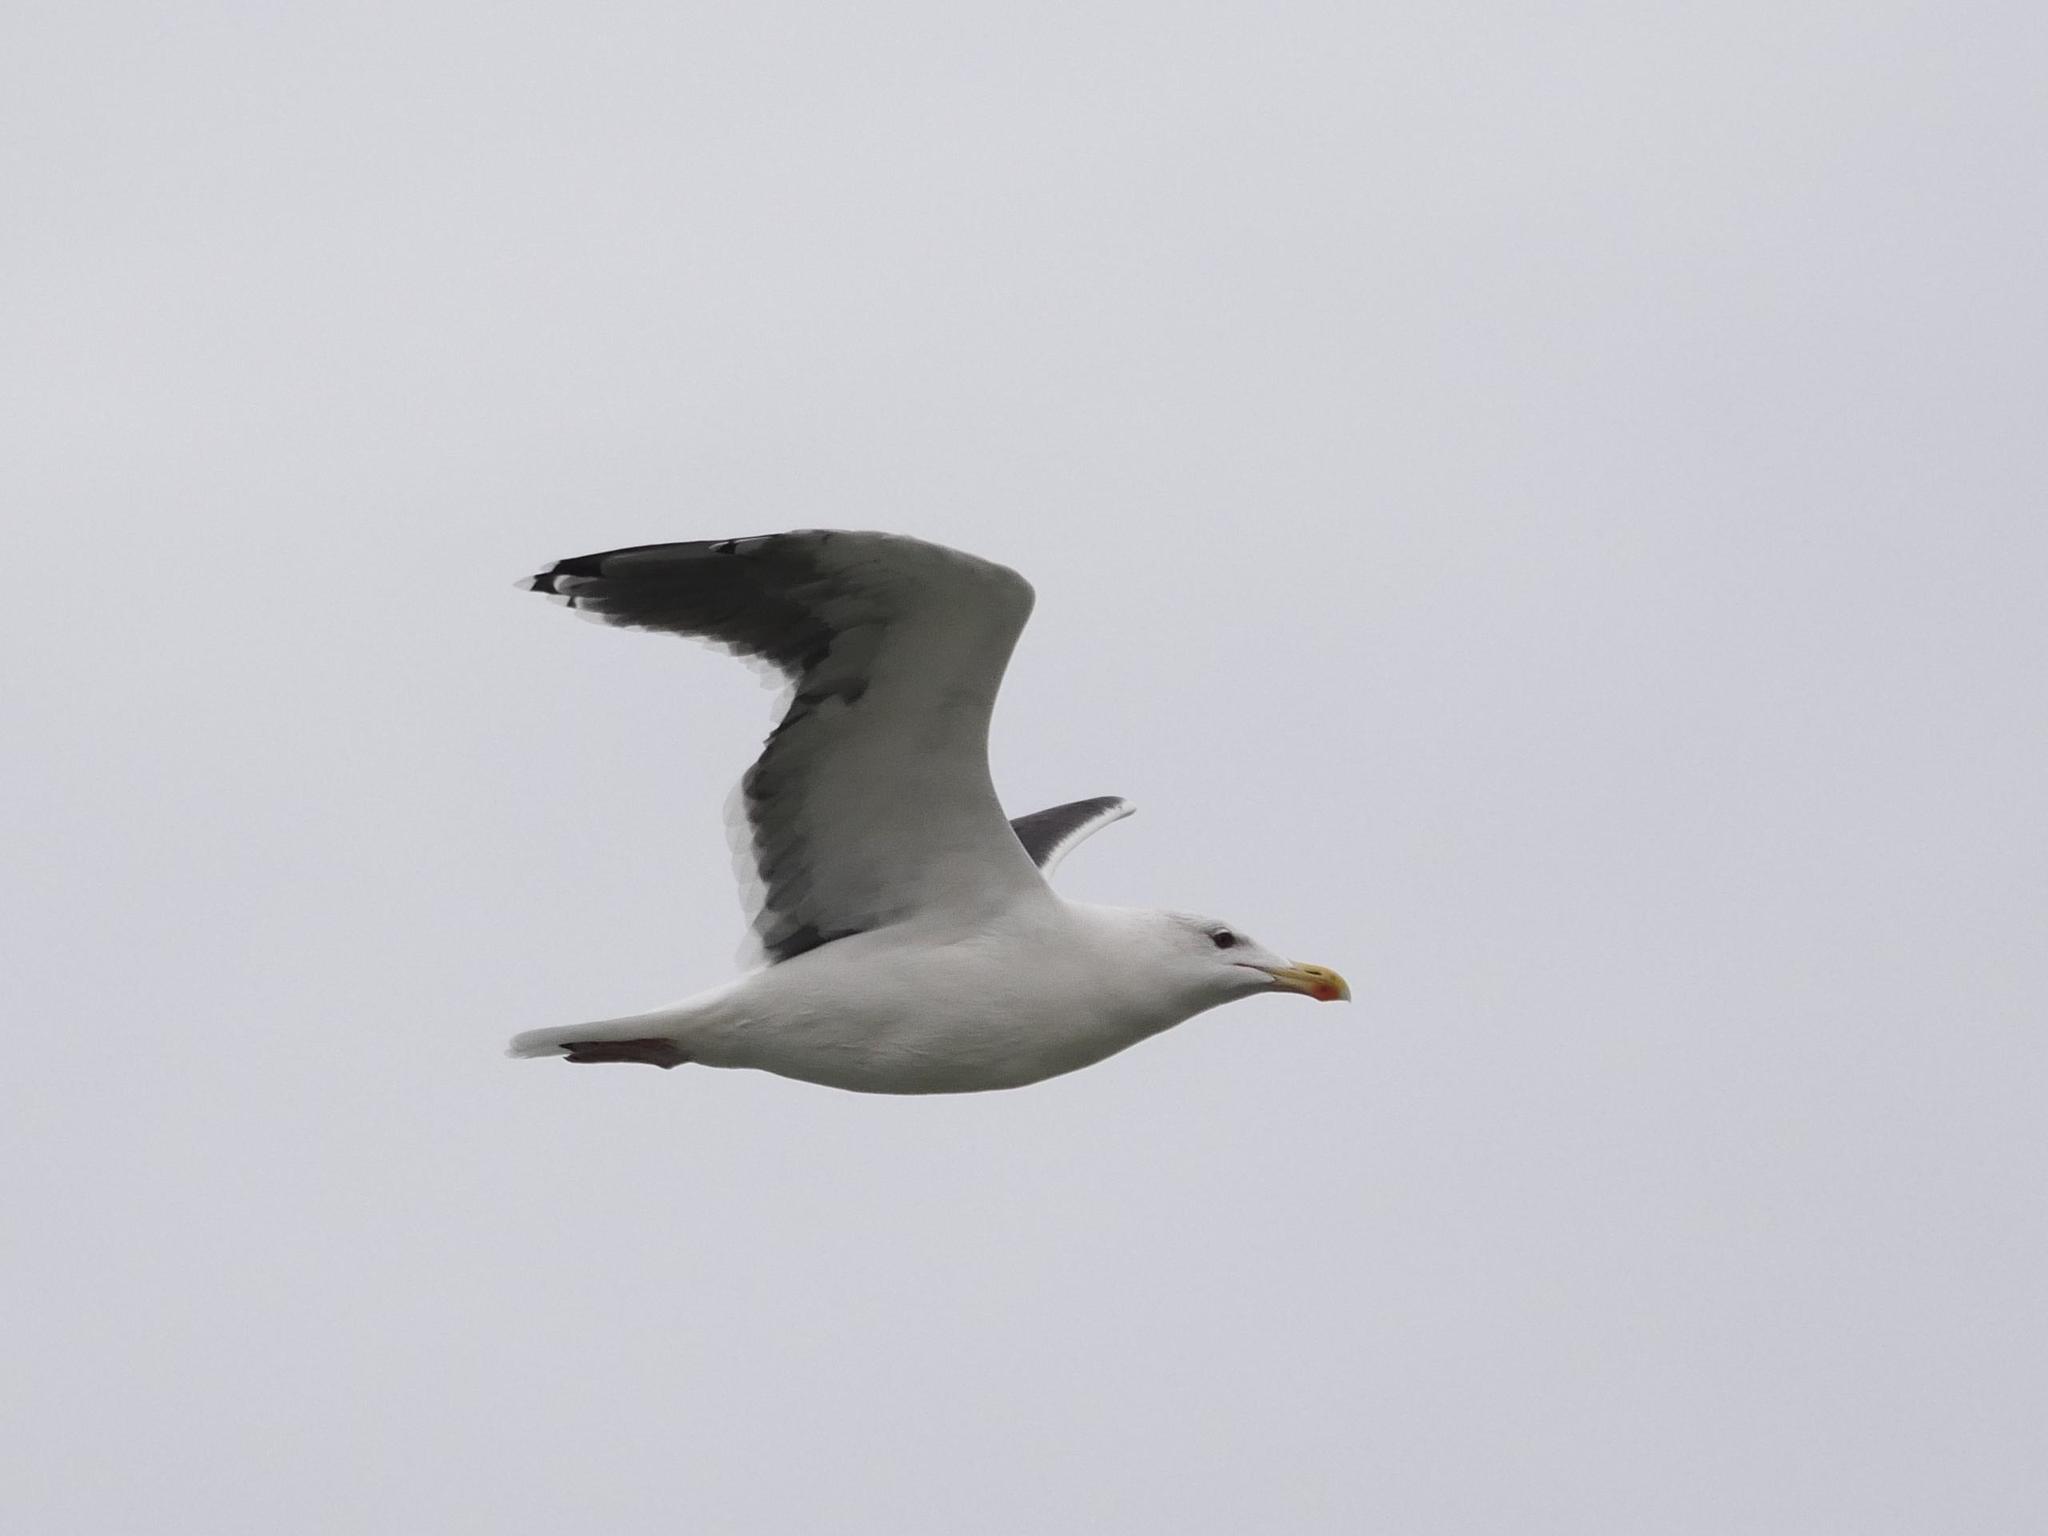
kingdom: Animalia
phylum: Chordata
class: Aves
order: Charadriiformes
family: Laridae
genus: Larus
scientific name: Larus marinus
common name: Great black-backed gull
